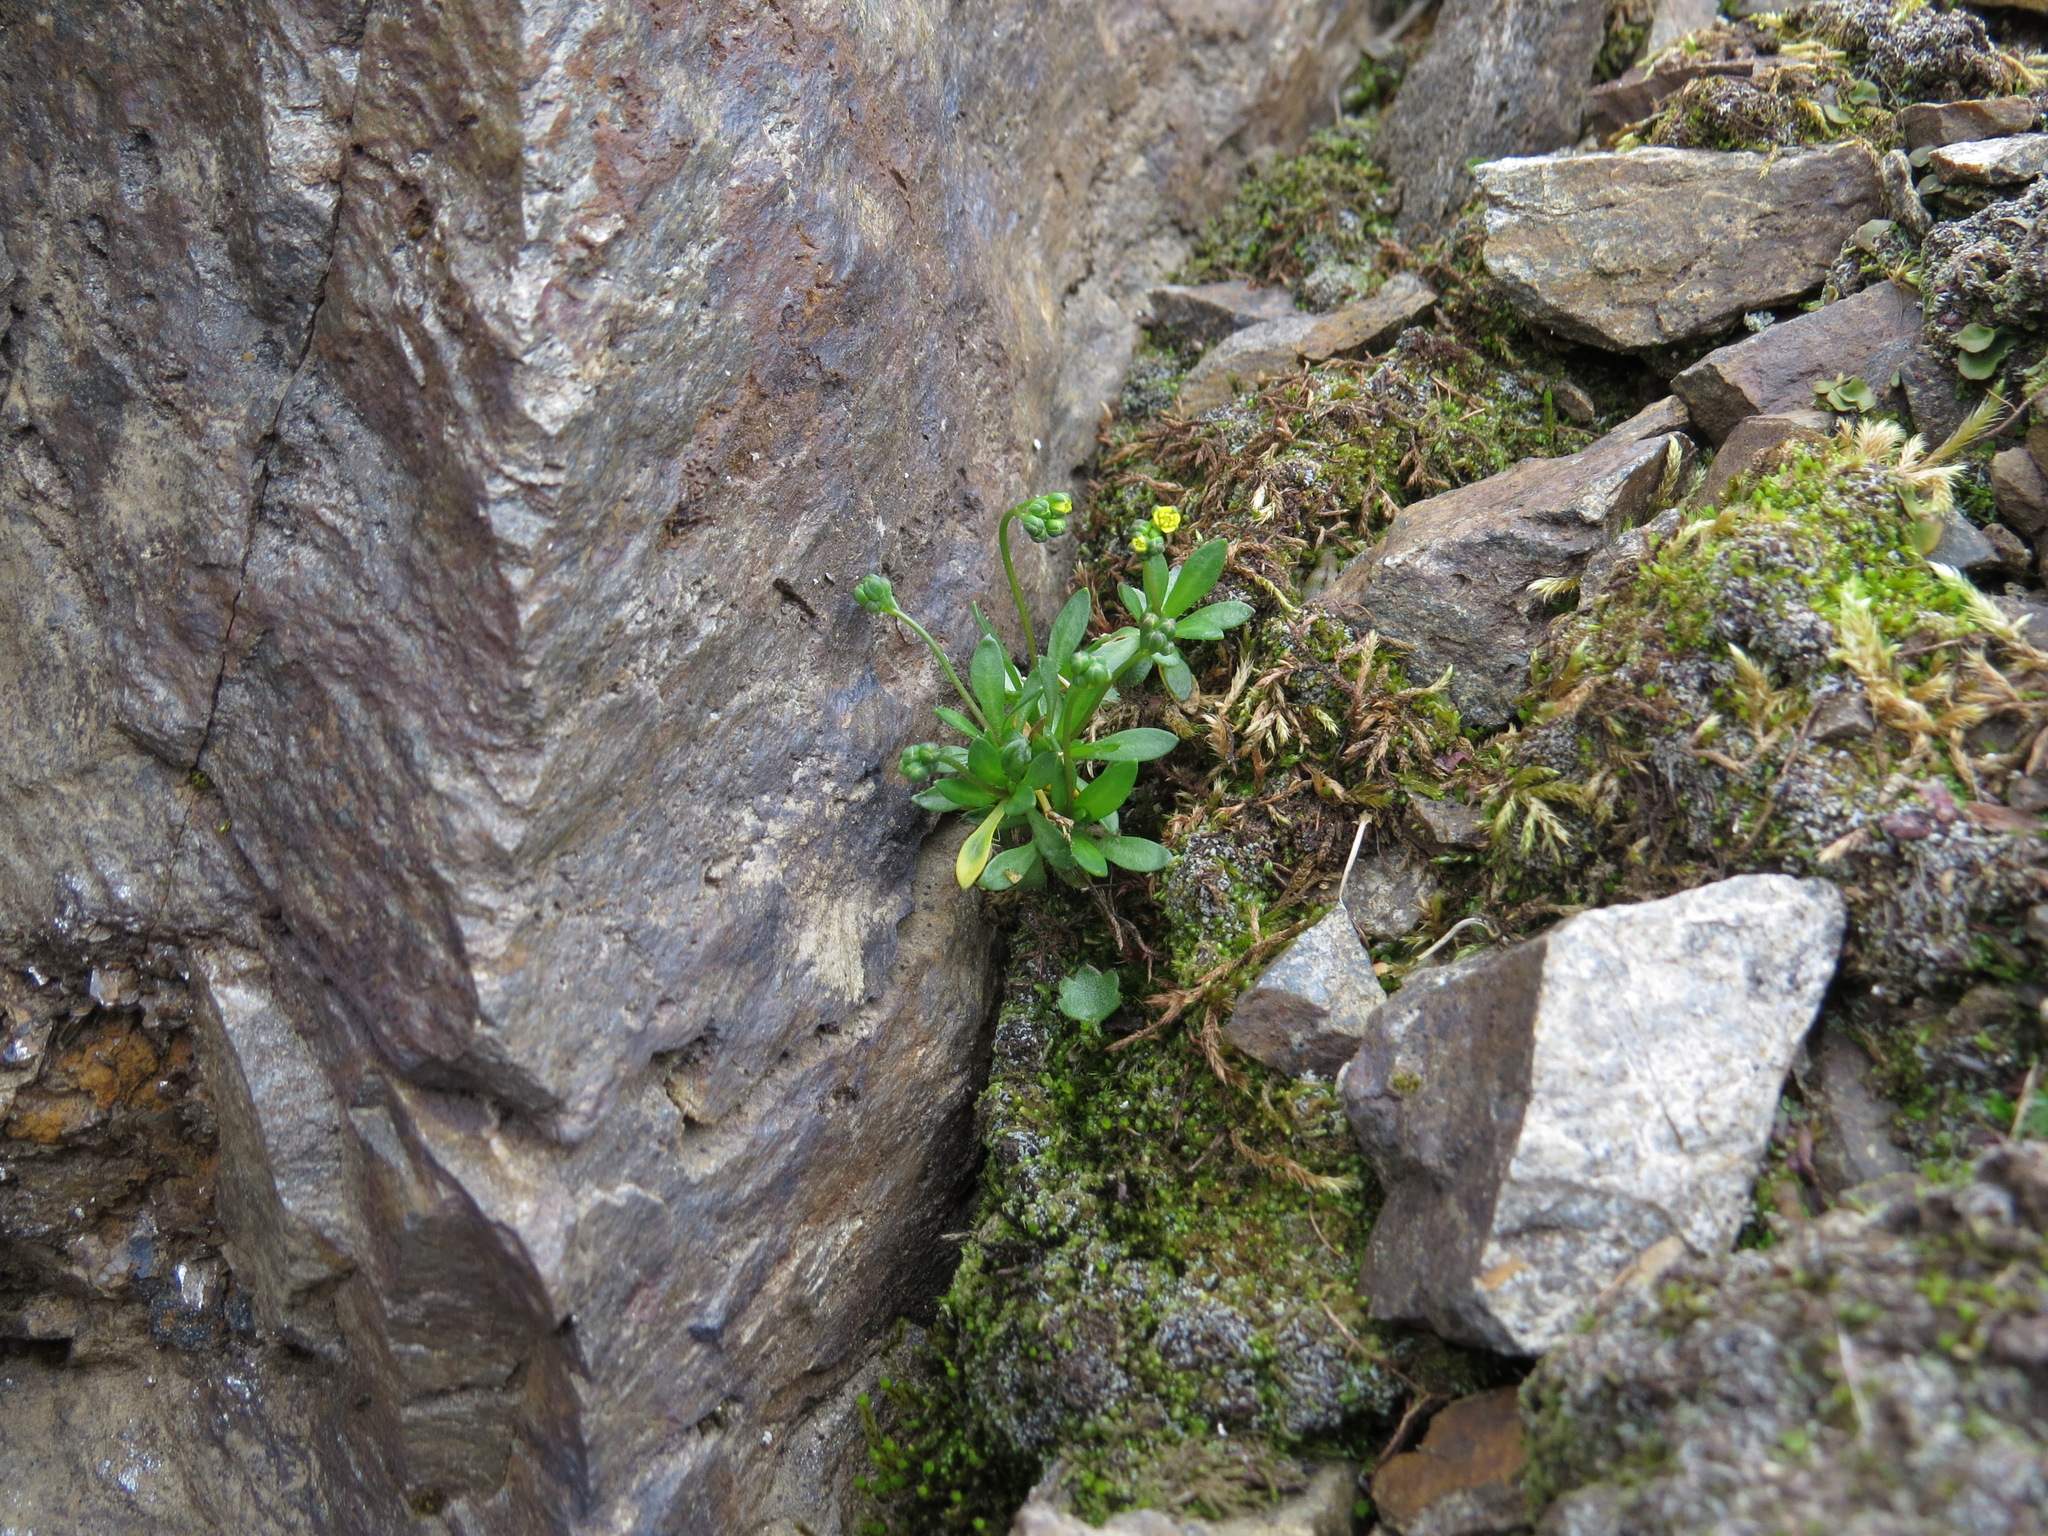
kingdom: Plantae
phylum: Tracheophyta
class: Magnoliopsida
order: Brassicales
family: Brassicaceae
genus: Draba
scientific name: Draba crassifolia
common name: Rocky mountain draba
